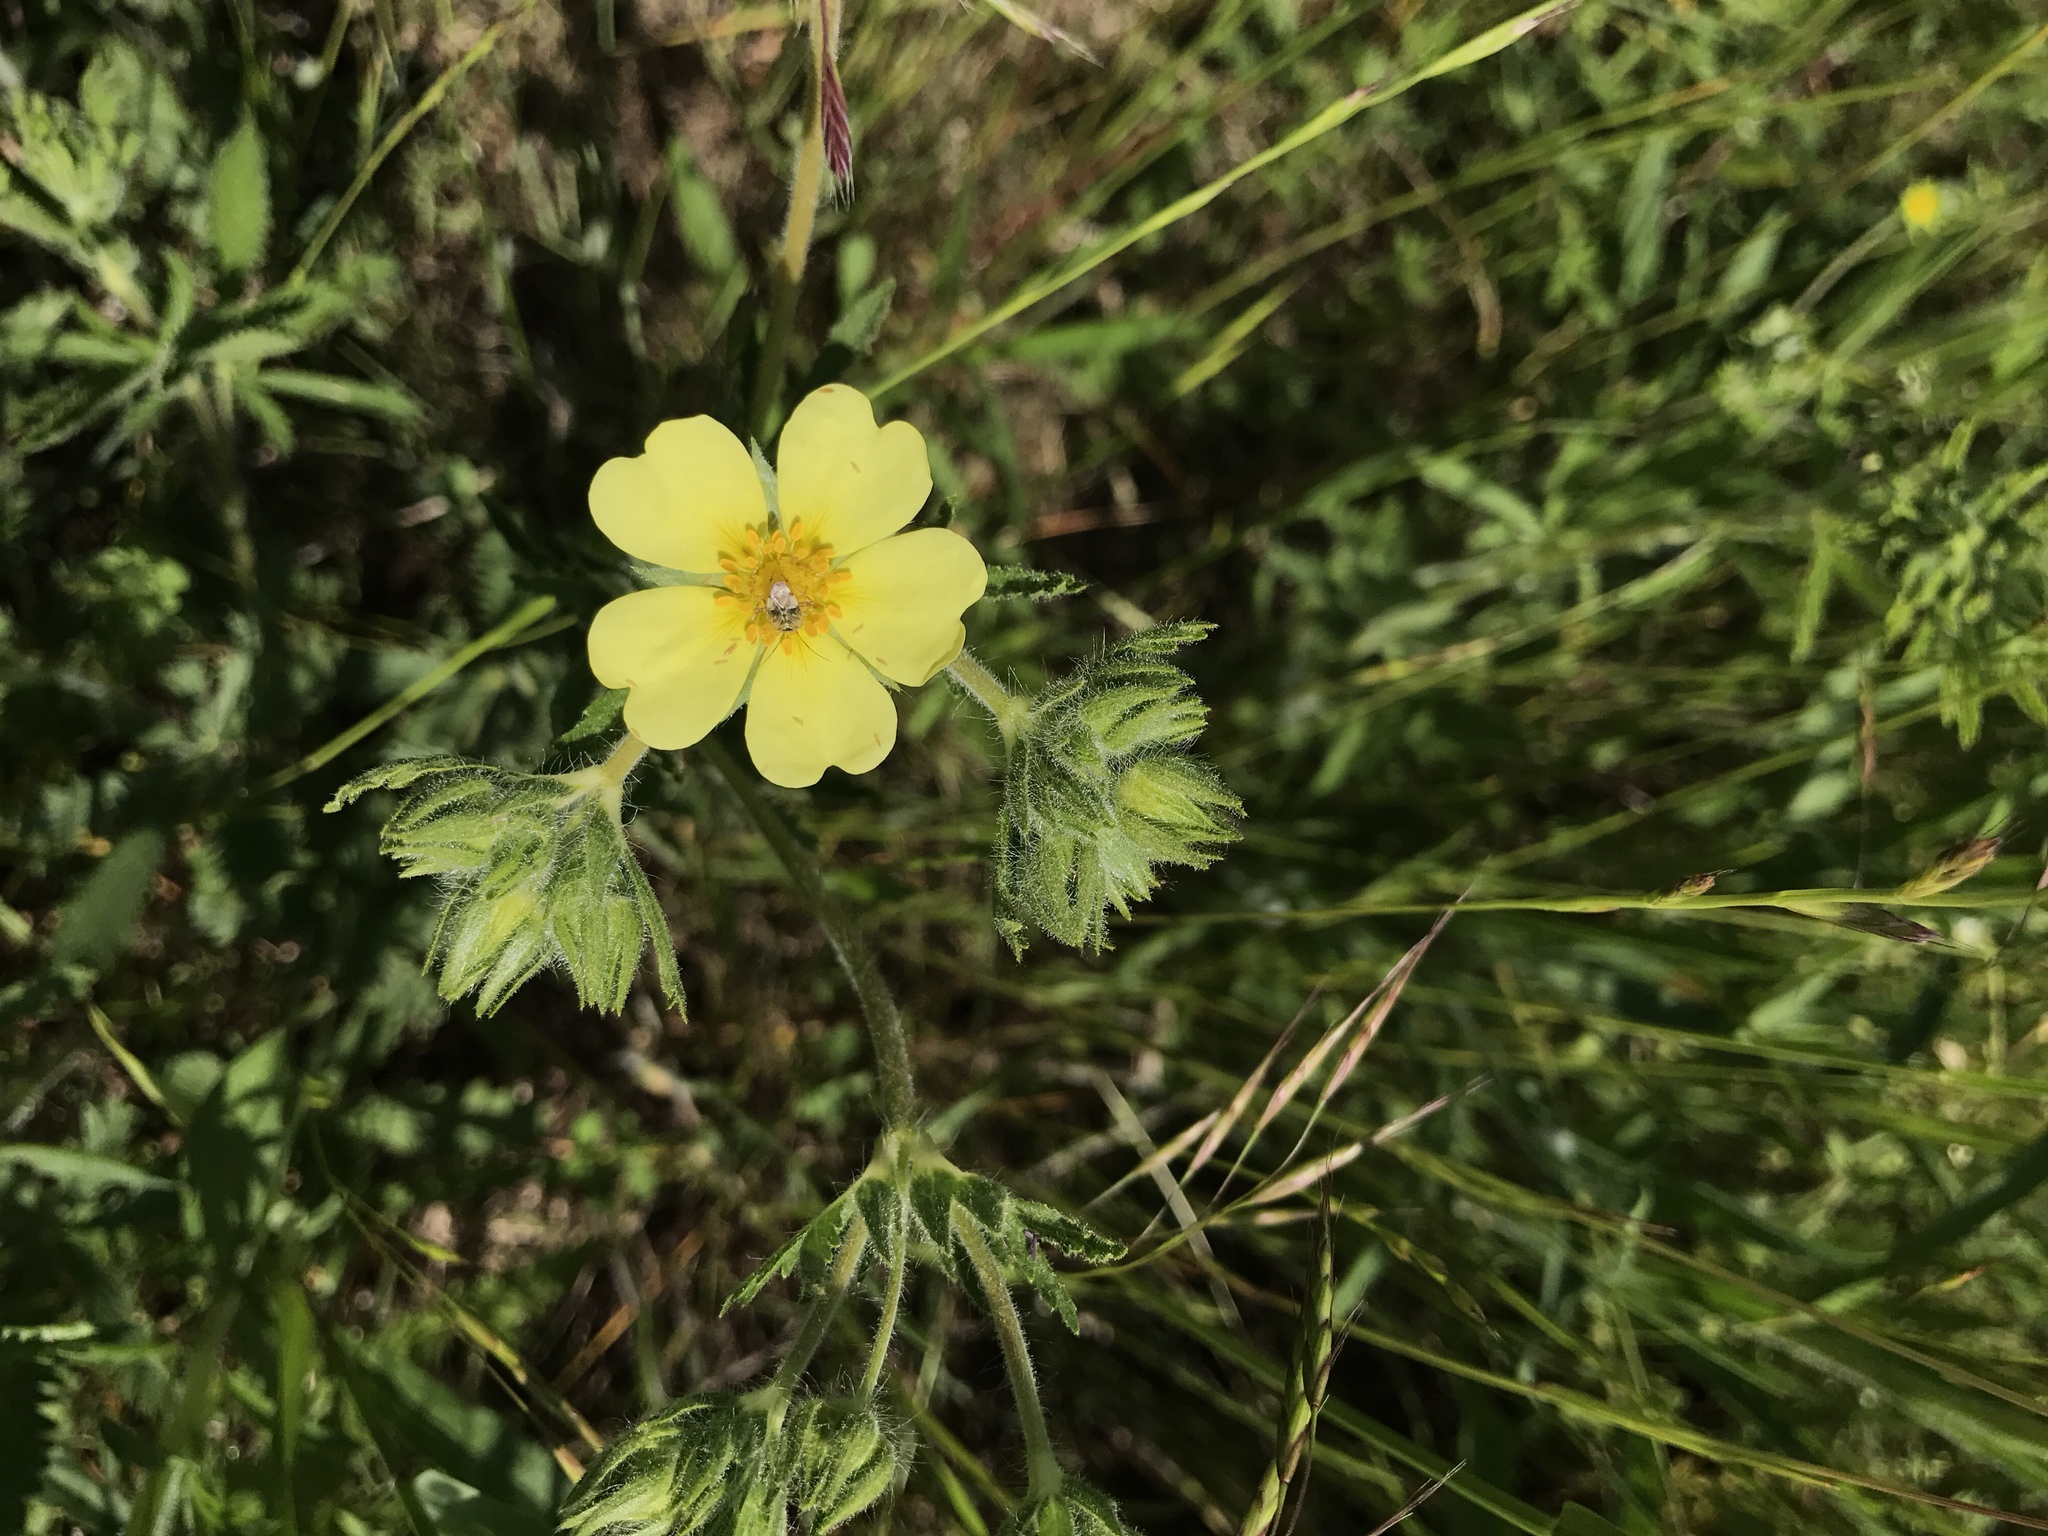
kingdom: Plantae
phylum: Tracheophyta
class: Magnoliopsida
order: Rosales
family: Rosaceae
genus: Potentilla
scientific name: Potentilla recta
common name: Sulphur cinquefoil
